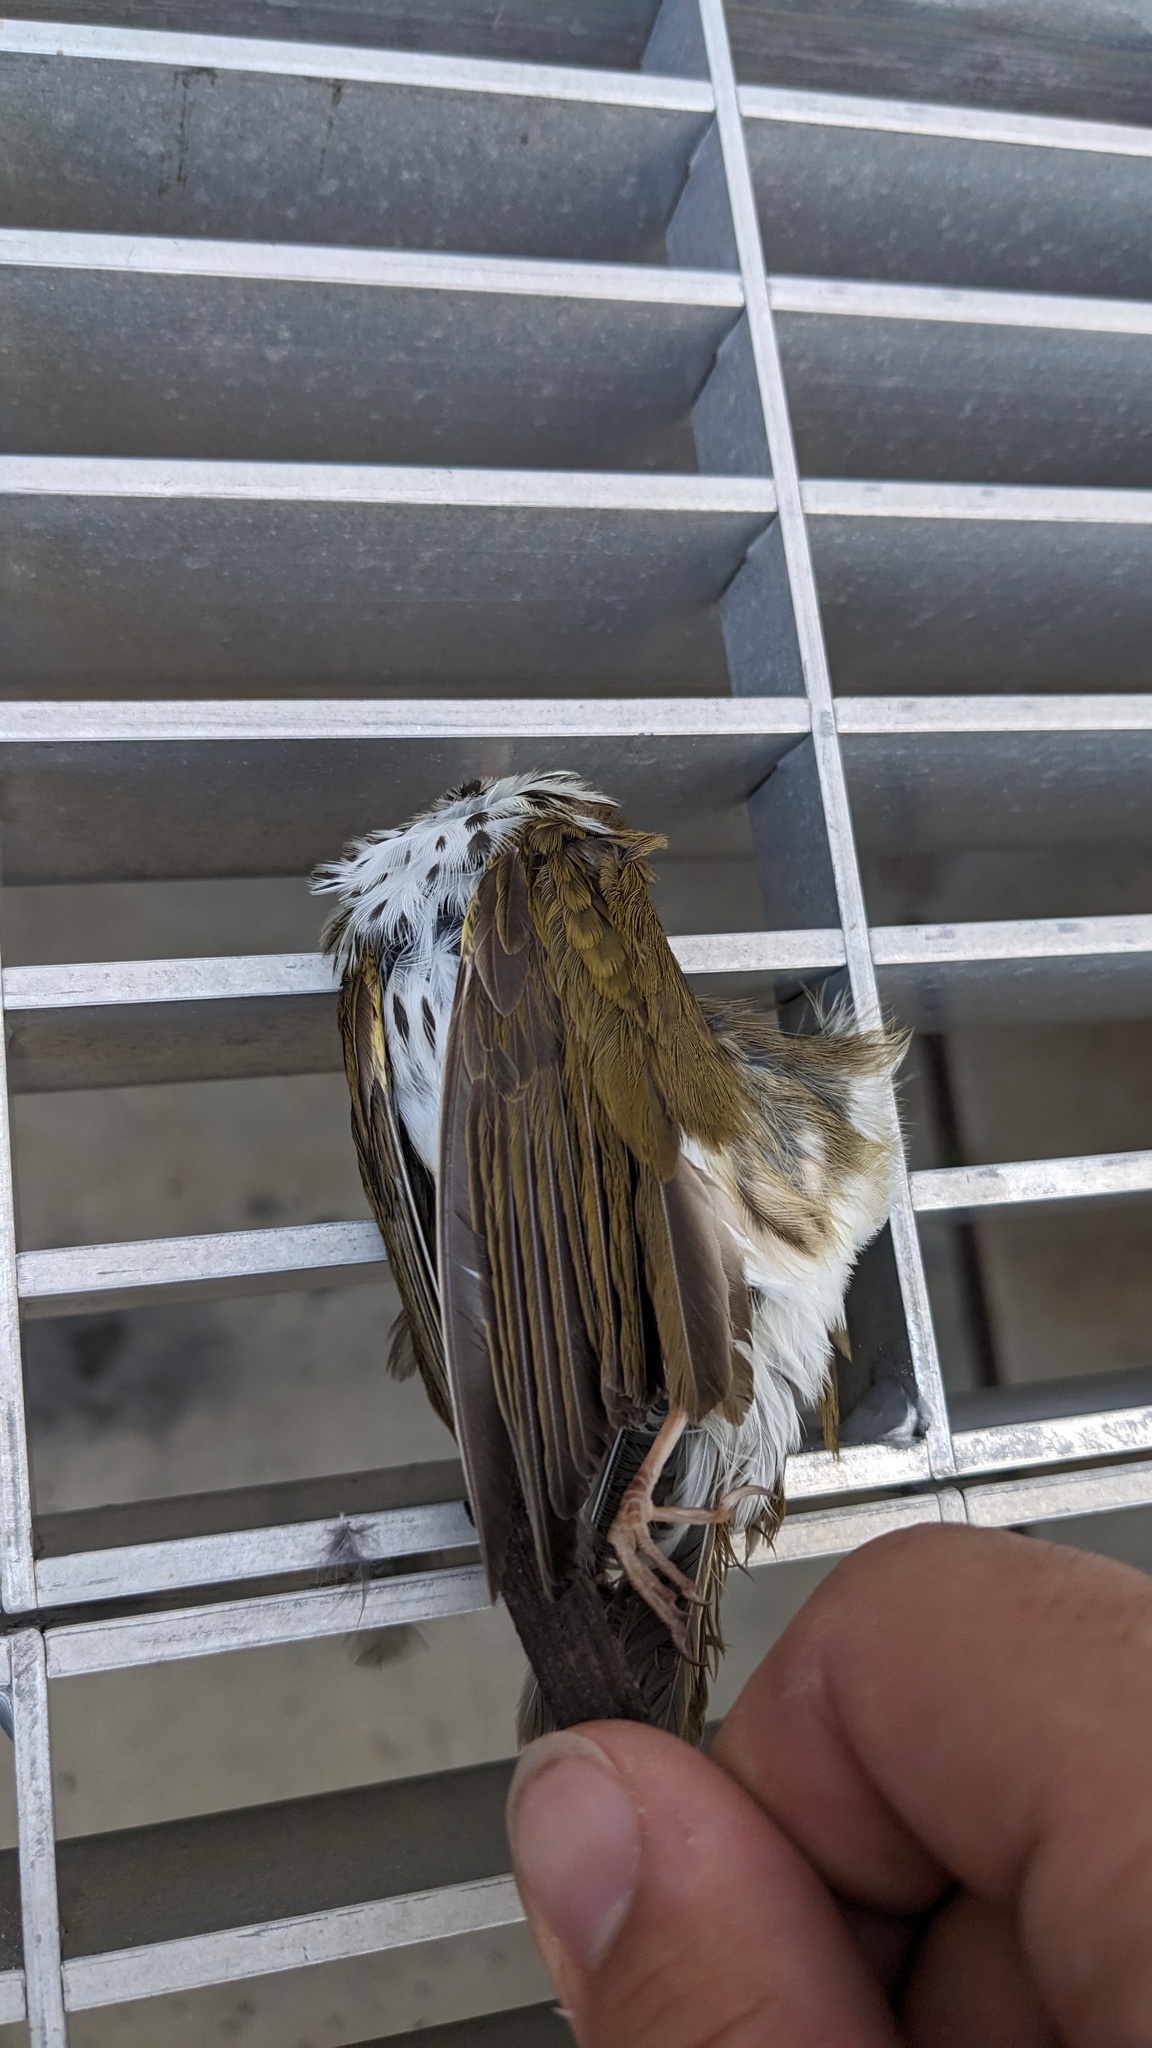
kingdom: Animalia
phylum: Chordata
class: Aves
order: Passeriformes
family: Parulidae
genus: Seiurus
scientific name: Seiurus aurocapilla
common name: Ovenbird
